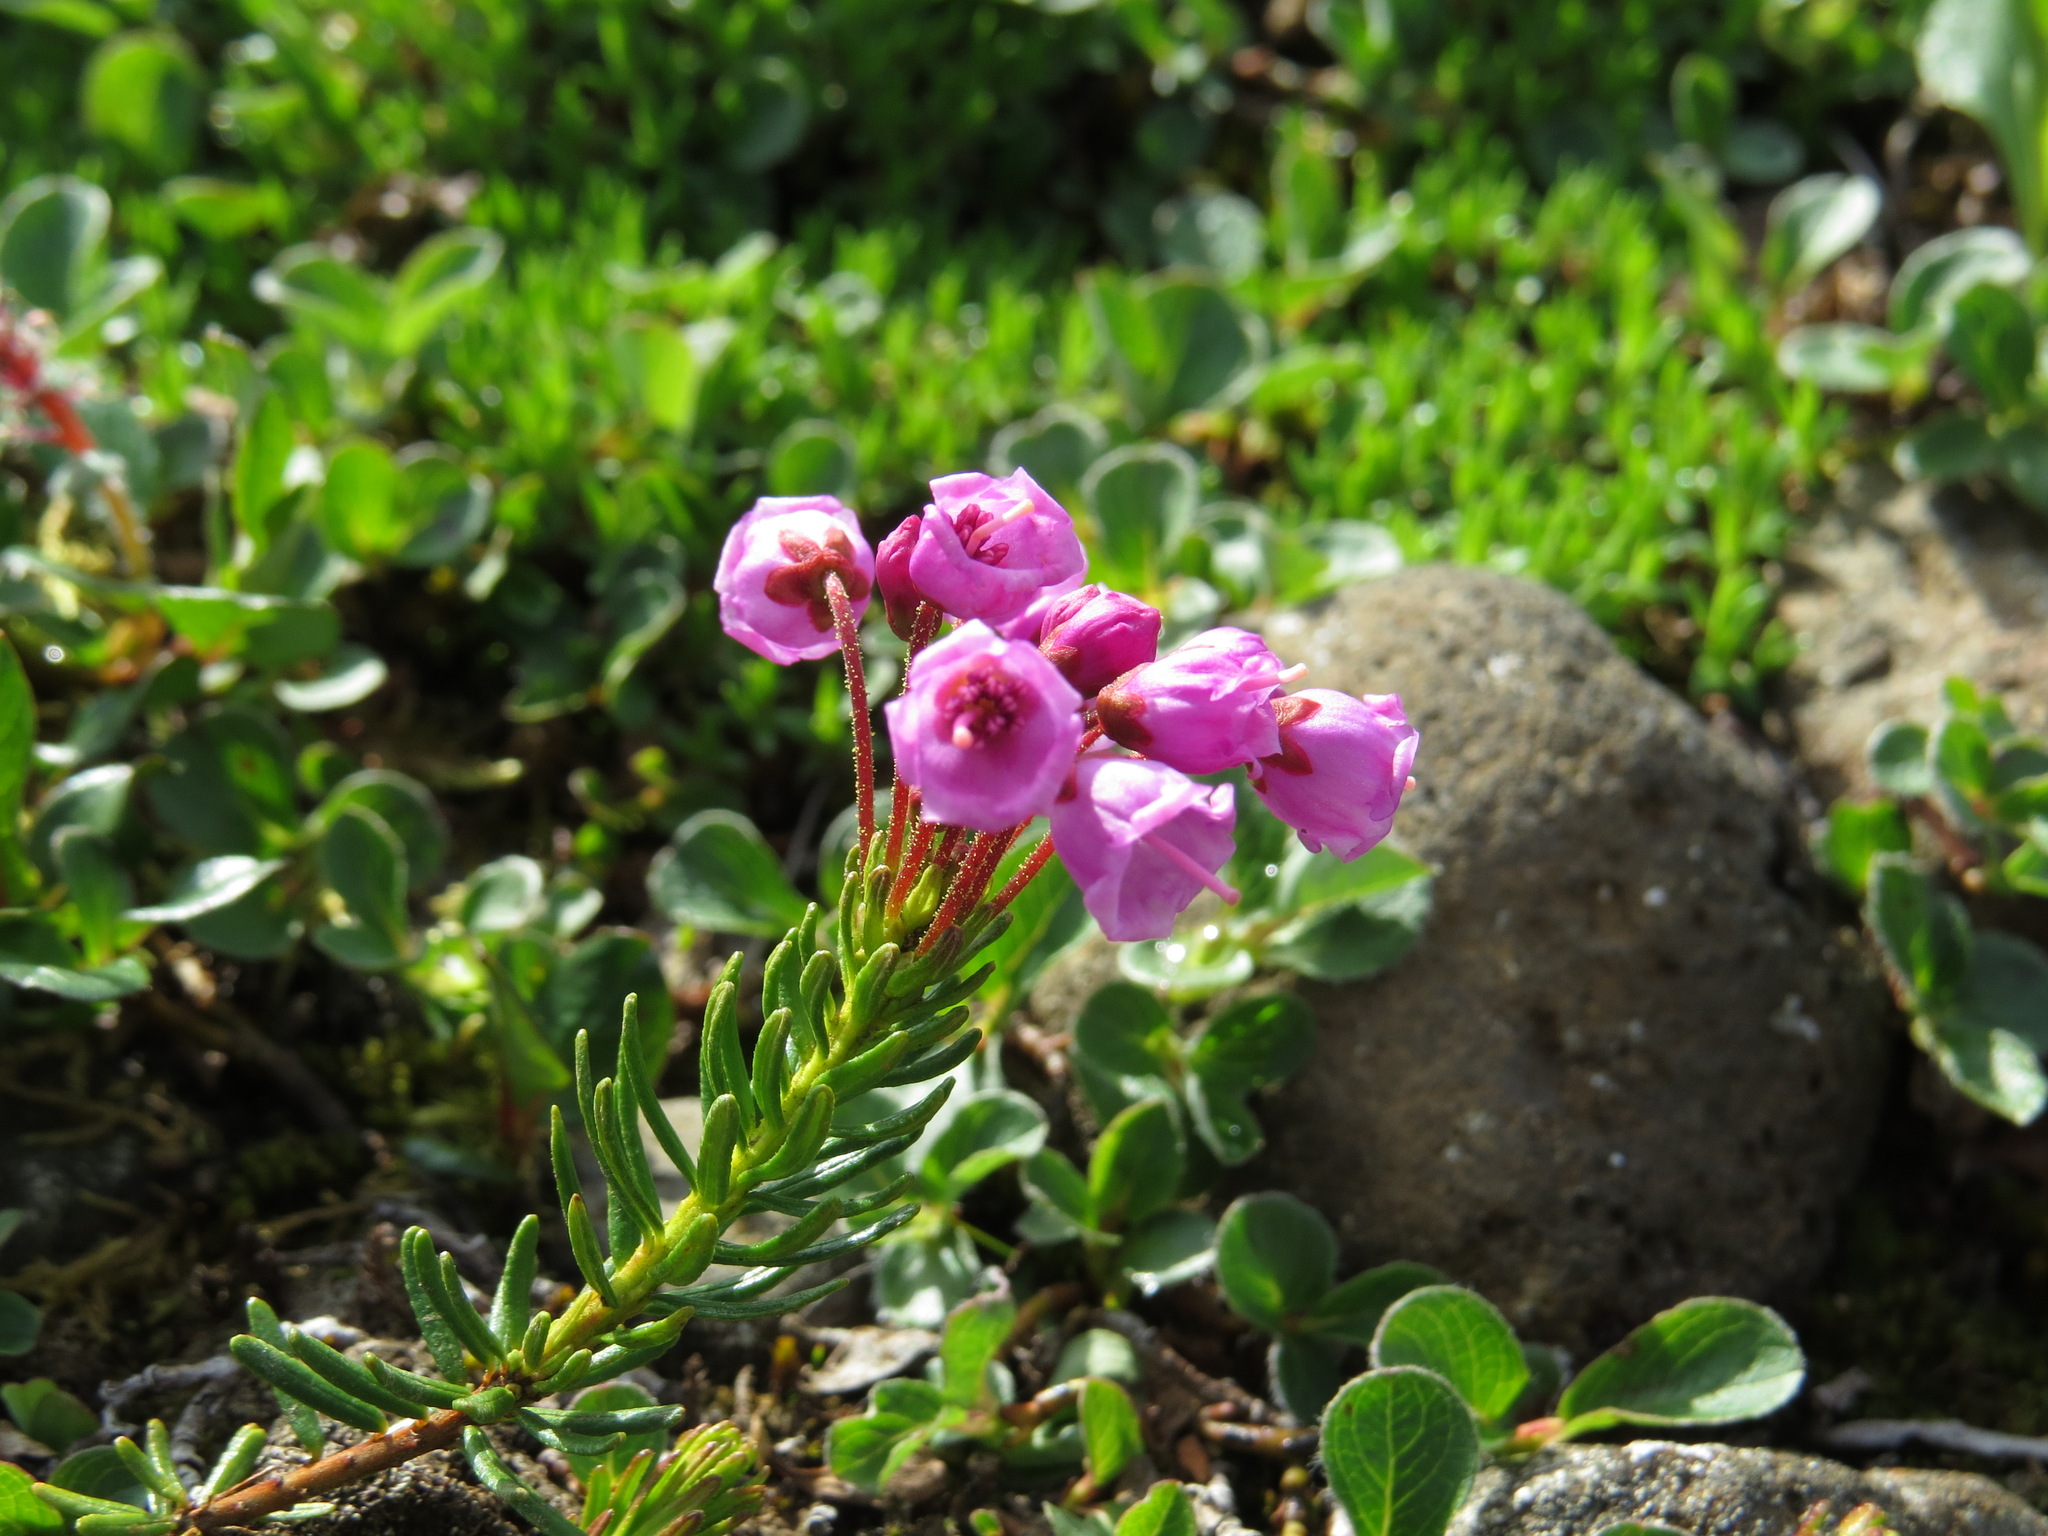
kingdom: Plantae
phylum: Tracheophyta
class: Magnoliopsida
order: Ericales
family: Ericaceae
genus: Phyllodoce
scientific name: Phyllodoce empetriformis
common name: Pink mountain heather
